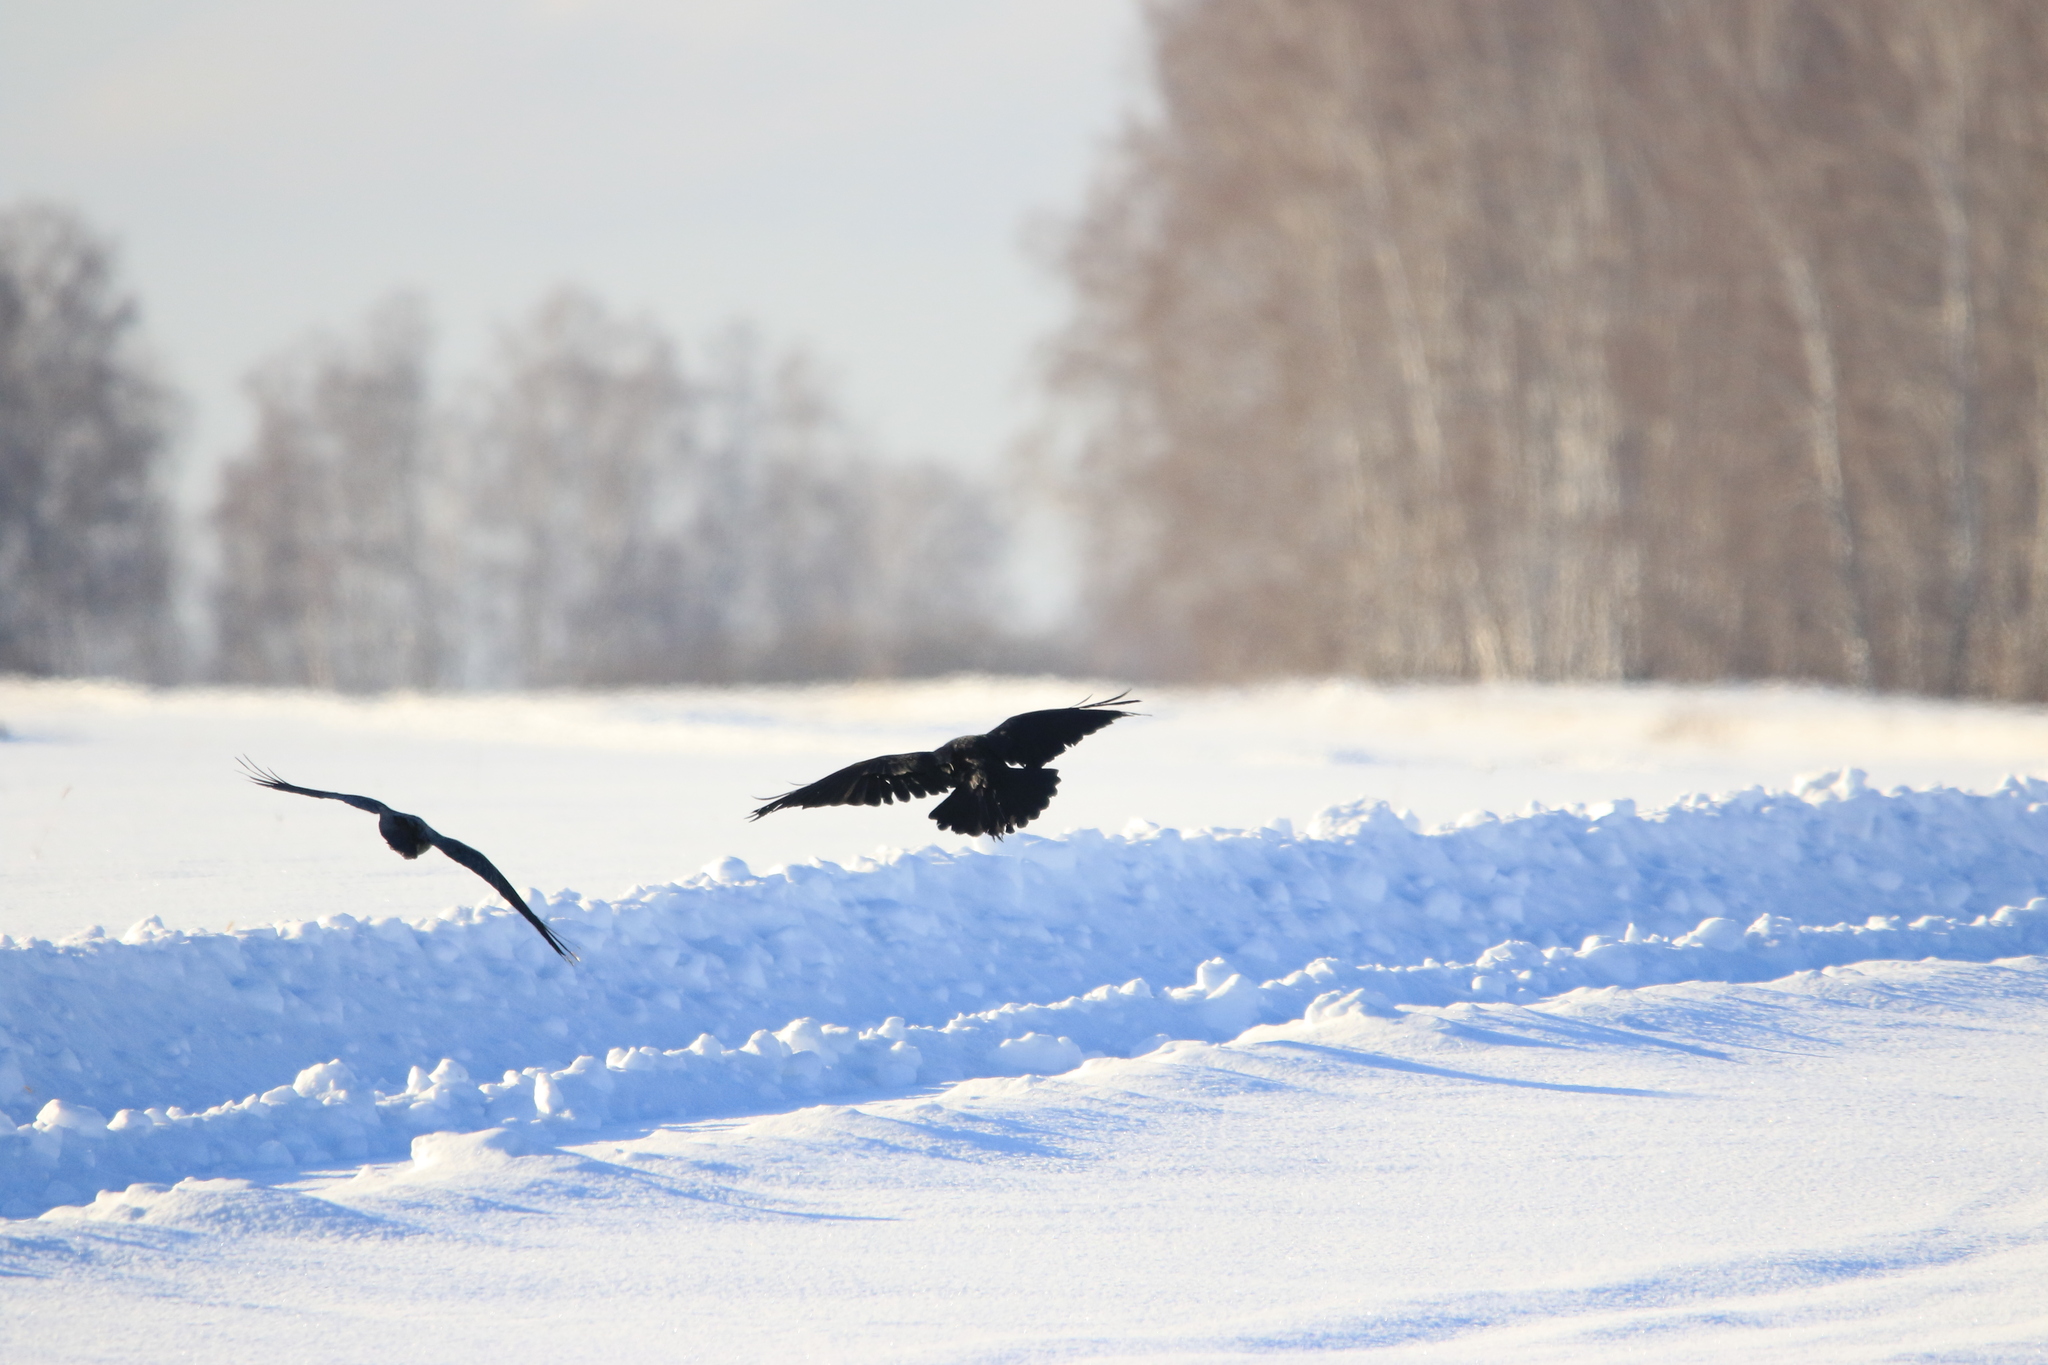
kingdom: Animalia
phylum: Chordata
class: Aves
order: Passeriformes
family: Corvidae
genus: Corvus
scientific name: Corvus corax
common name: Common raven
